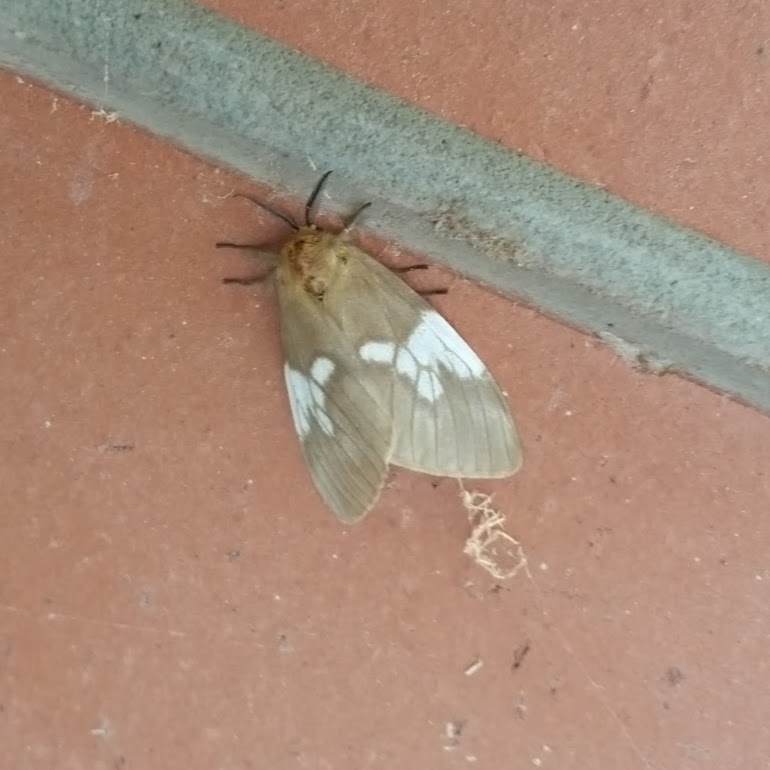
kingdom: Animalia
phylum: Arthropoda
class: Insecta
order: Lepidoptera
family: Erebidae
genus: Palasea
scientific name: Palasea albimacula
